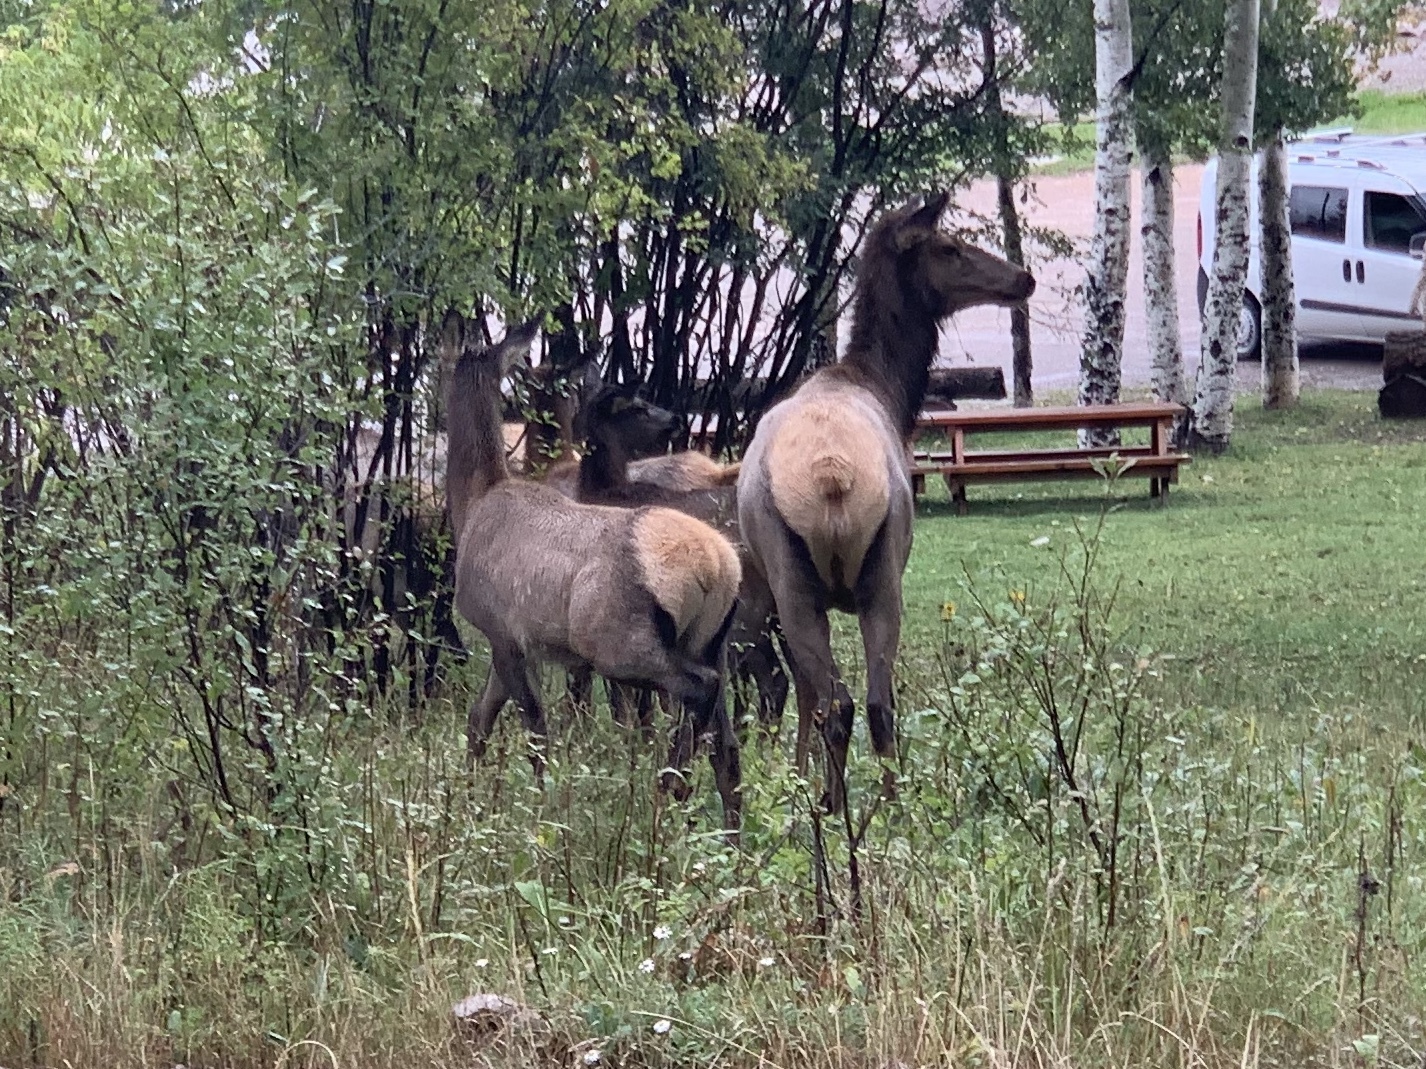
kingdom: Animalia
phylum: Chordata
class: Mammalia
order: Artiodactyla
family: Cervidae
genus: Cervus
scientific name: Cervus elaphus
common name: Red deer
